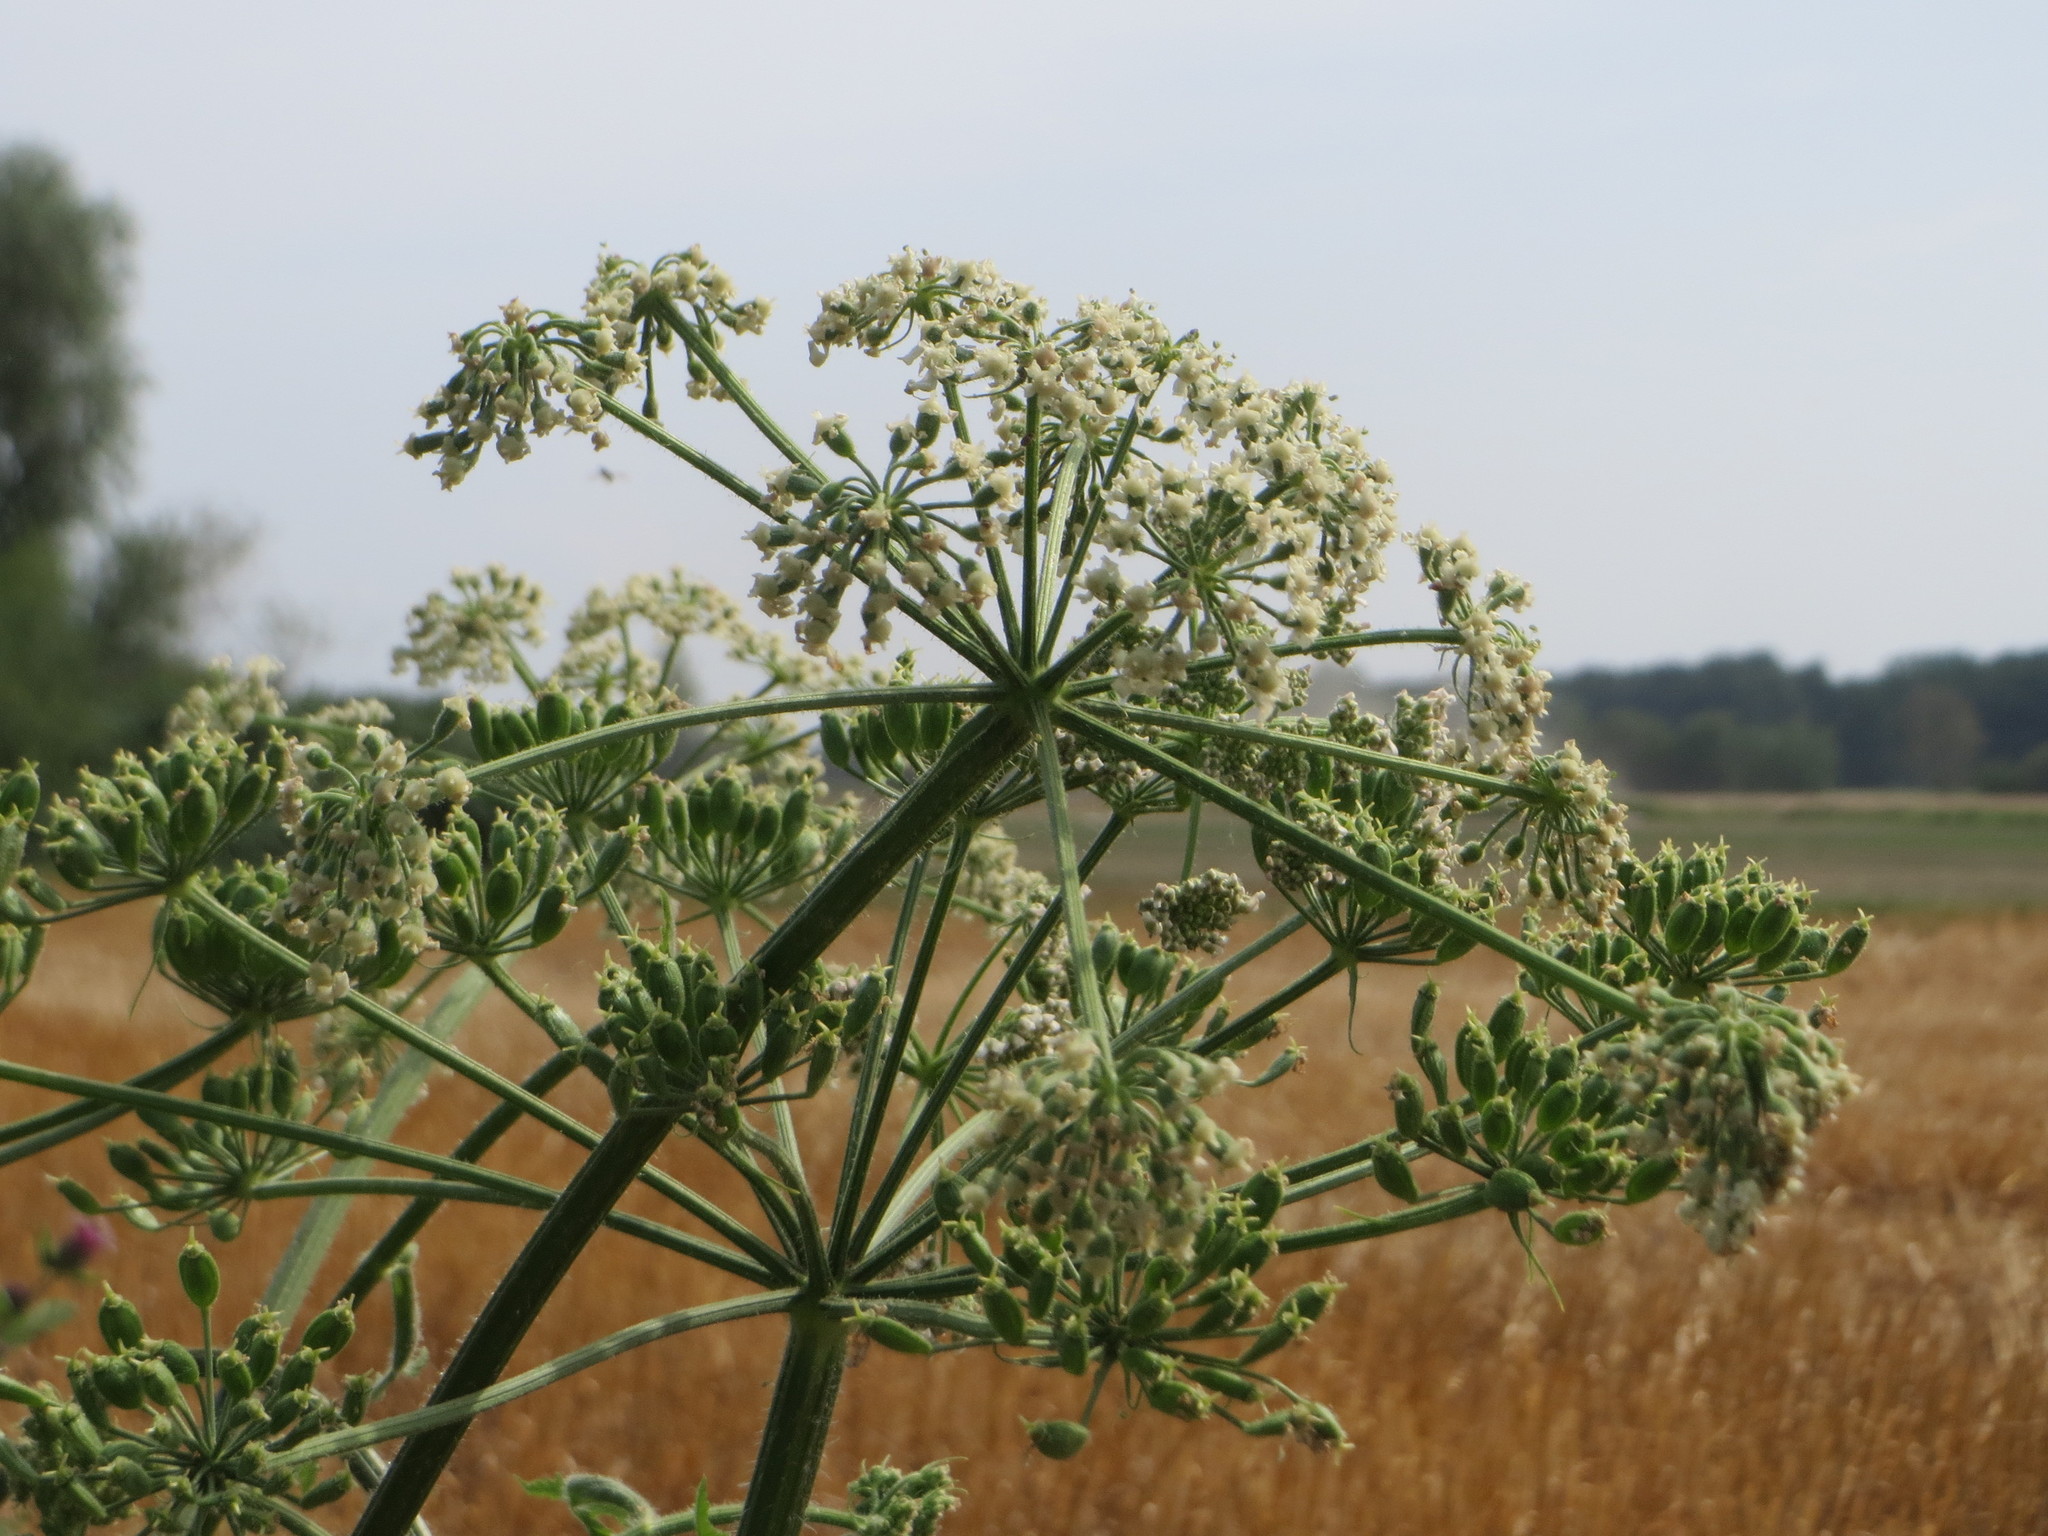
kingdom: Plantae
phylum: Tracheophyta
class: Magnoliopsida
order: Apiales
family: Apiaceae
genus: Heracleum
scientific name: Heracleum sphondylium
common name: Hogweed
